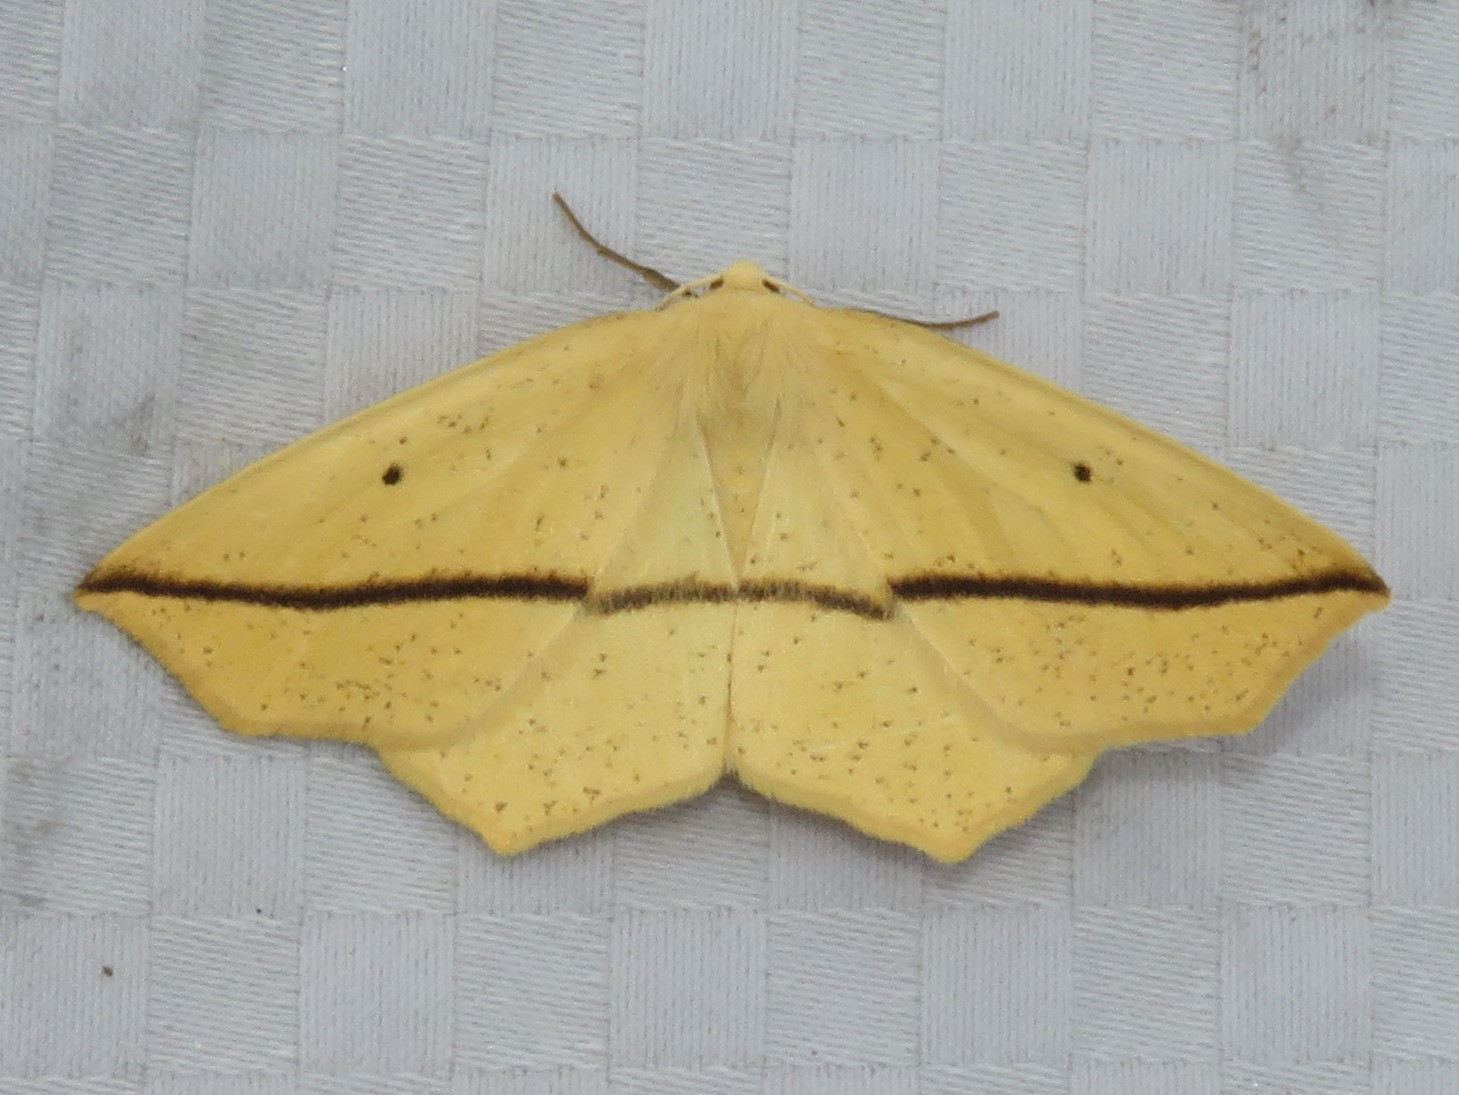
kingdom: Animalia
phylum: Arthropoda
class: Insecta
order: Lepidoptera
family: Geometridae
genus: Tetracis
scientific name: Tetracis crocallata
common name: Yellow slant-line
